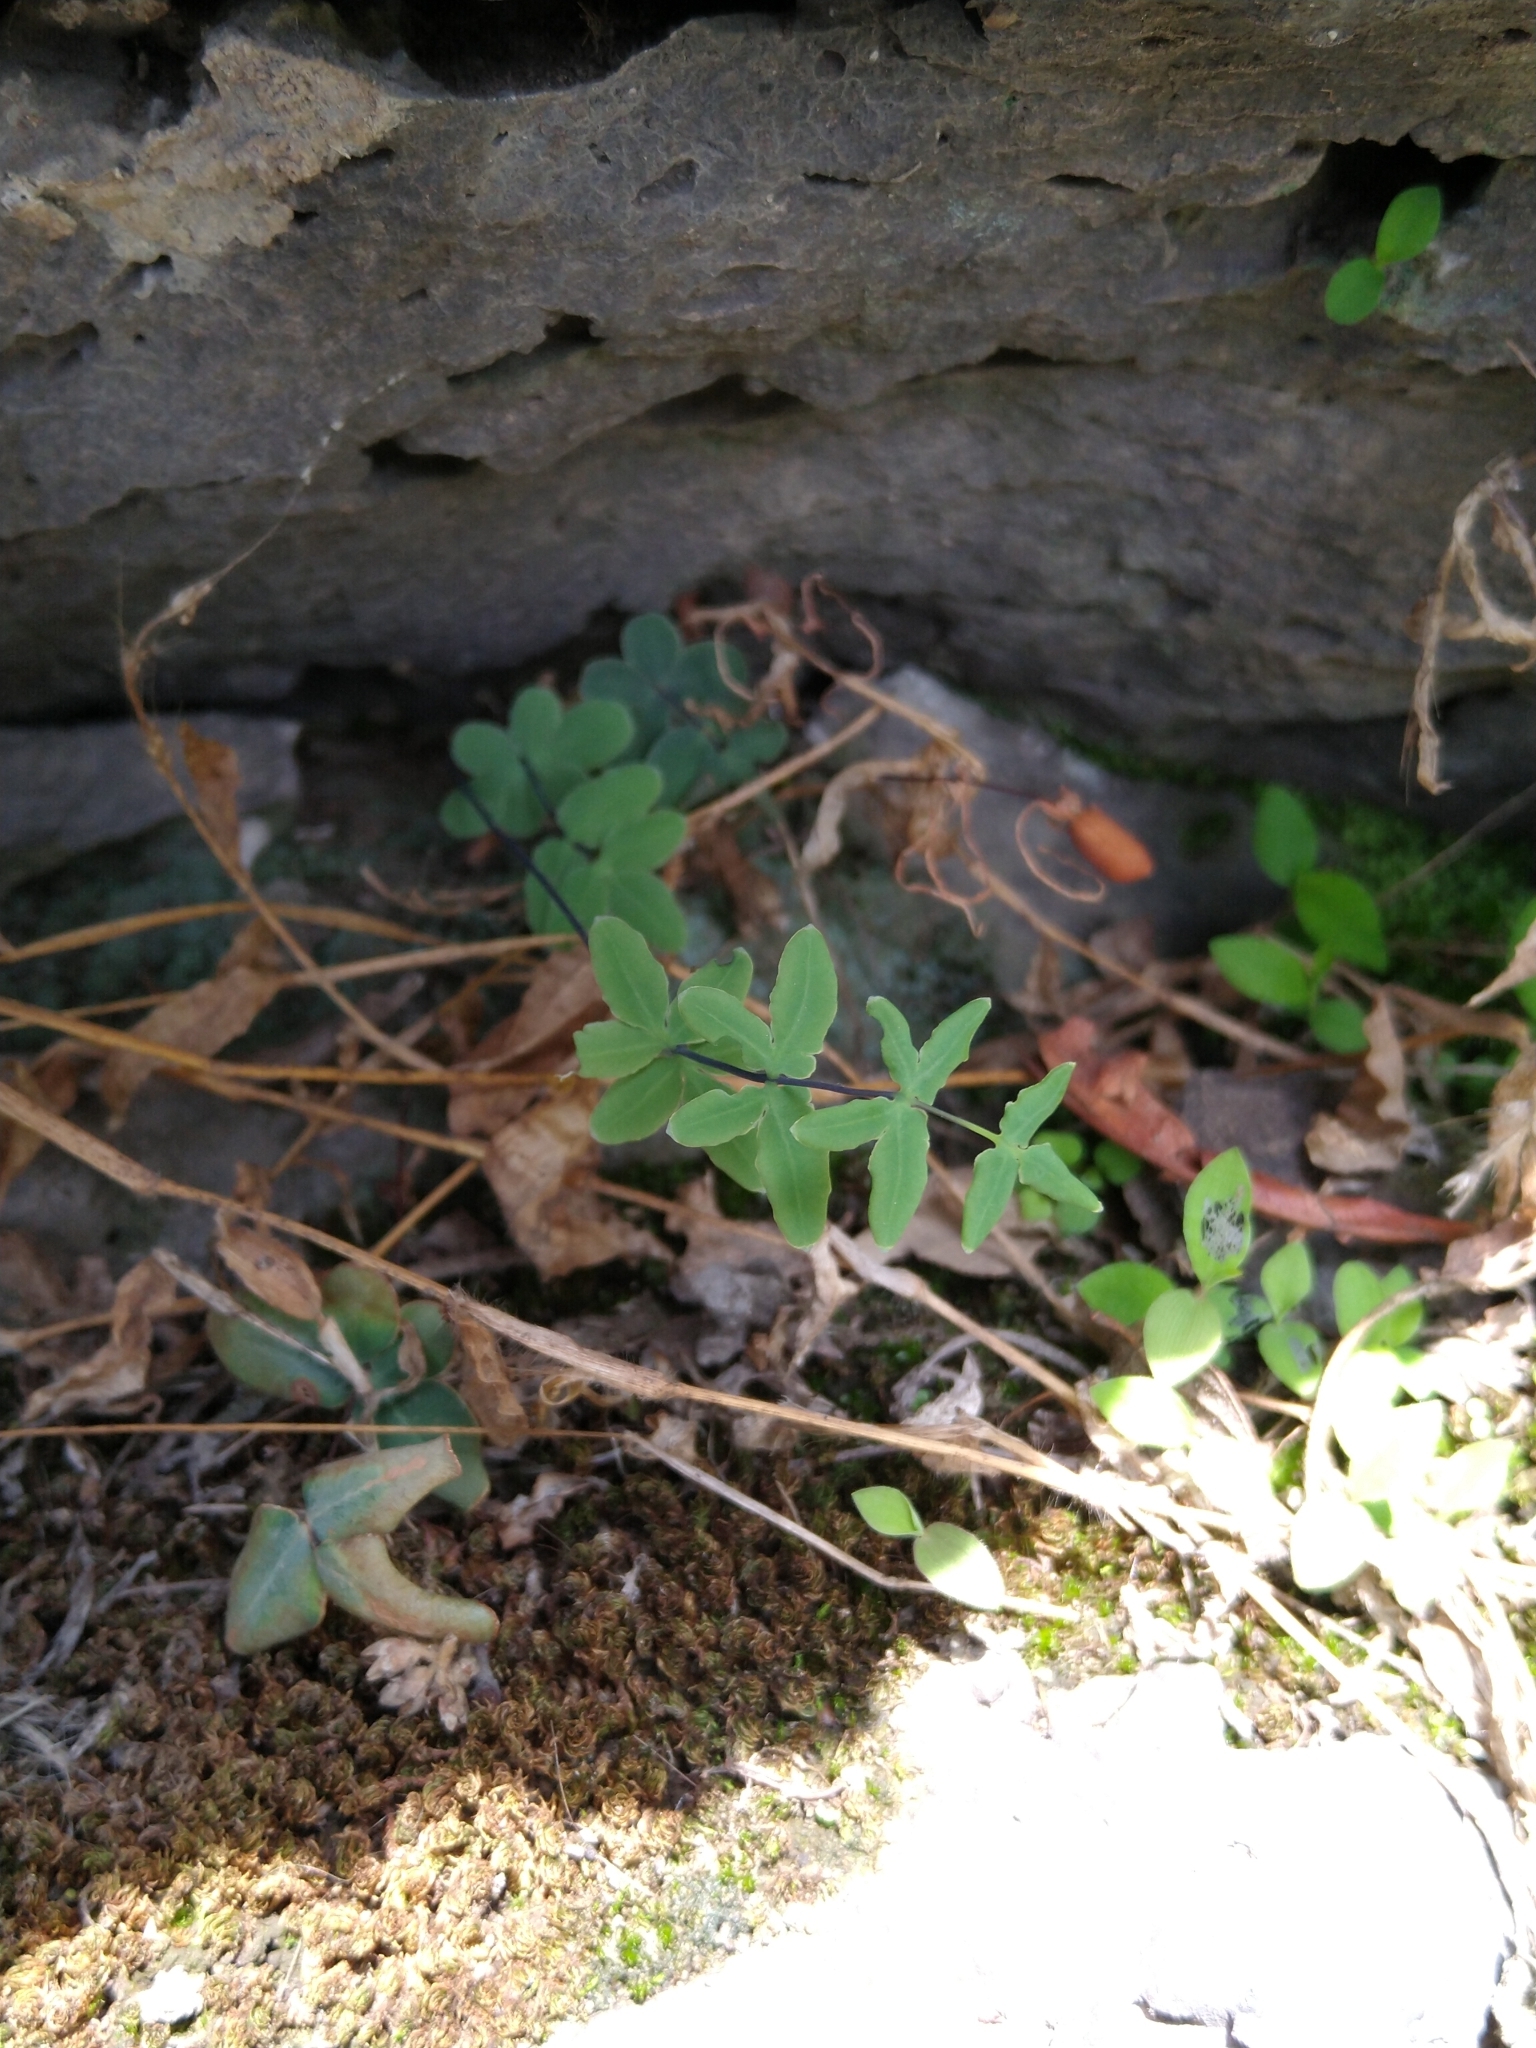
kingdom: Plantae
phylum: Tracheophyta
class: Polypodiopsida
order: Polypodiales
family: Pteridaceae
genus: Pellaea
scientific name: Pellaea ternifolia
